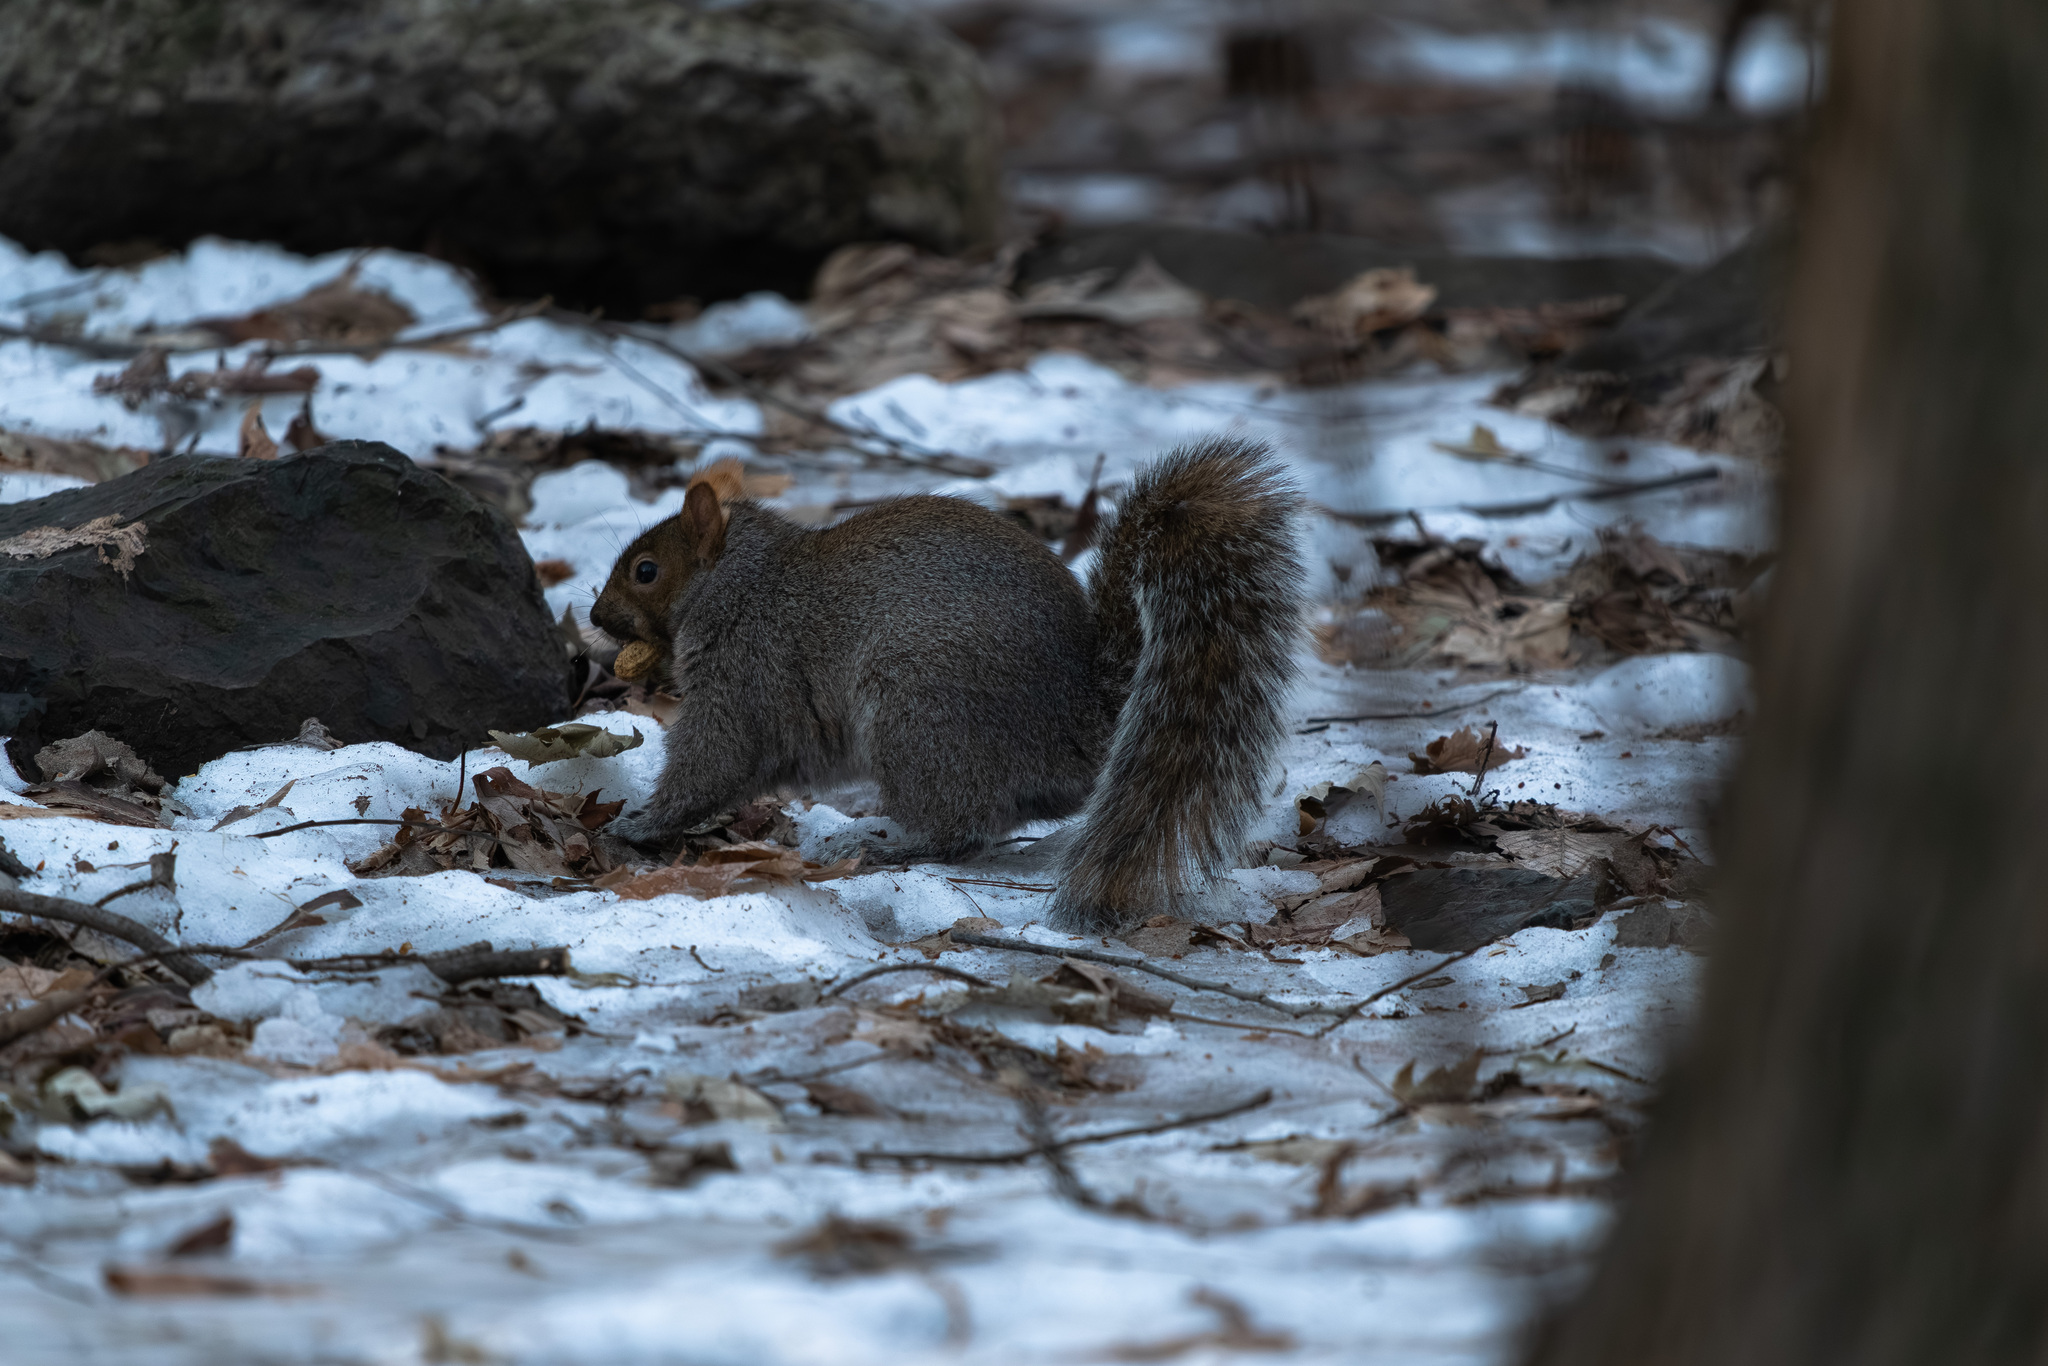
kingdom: Animalia
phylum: Chordata
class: Mammalia
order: Rodentia
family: Sciuridae
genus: Sciurus
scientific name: Sciurus carolinensis
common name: Eastern gray squirrel
